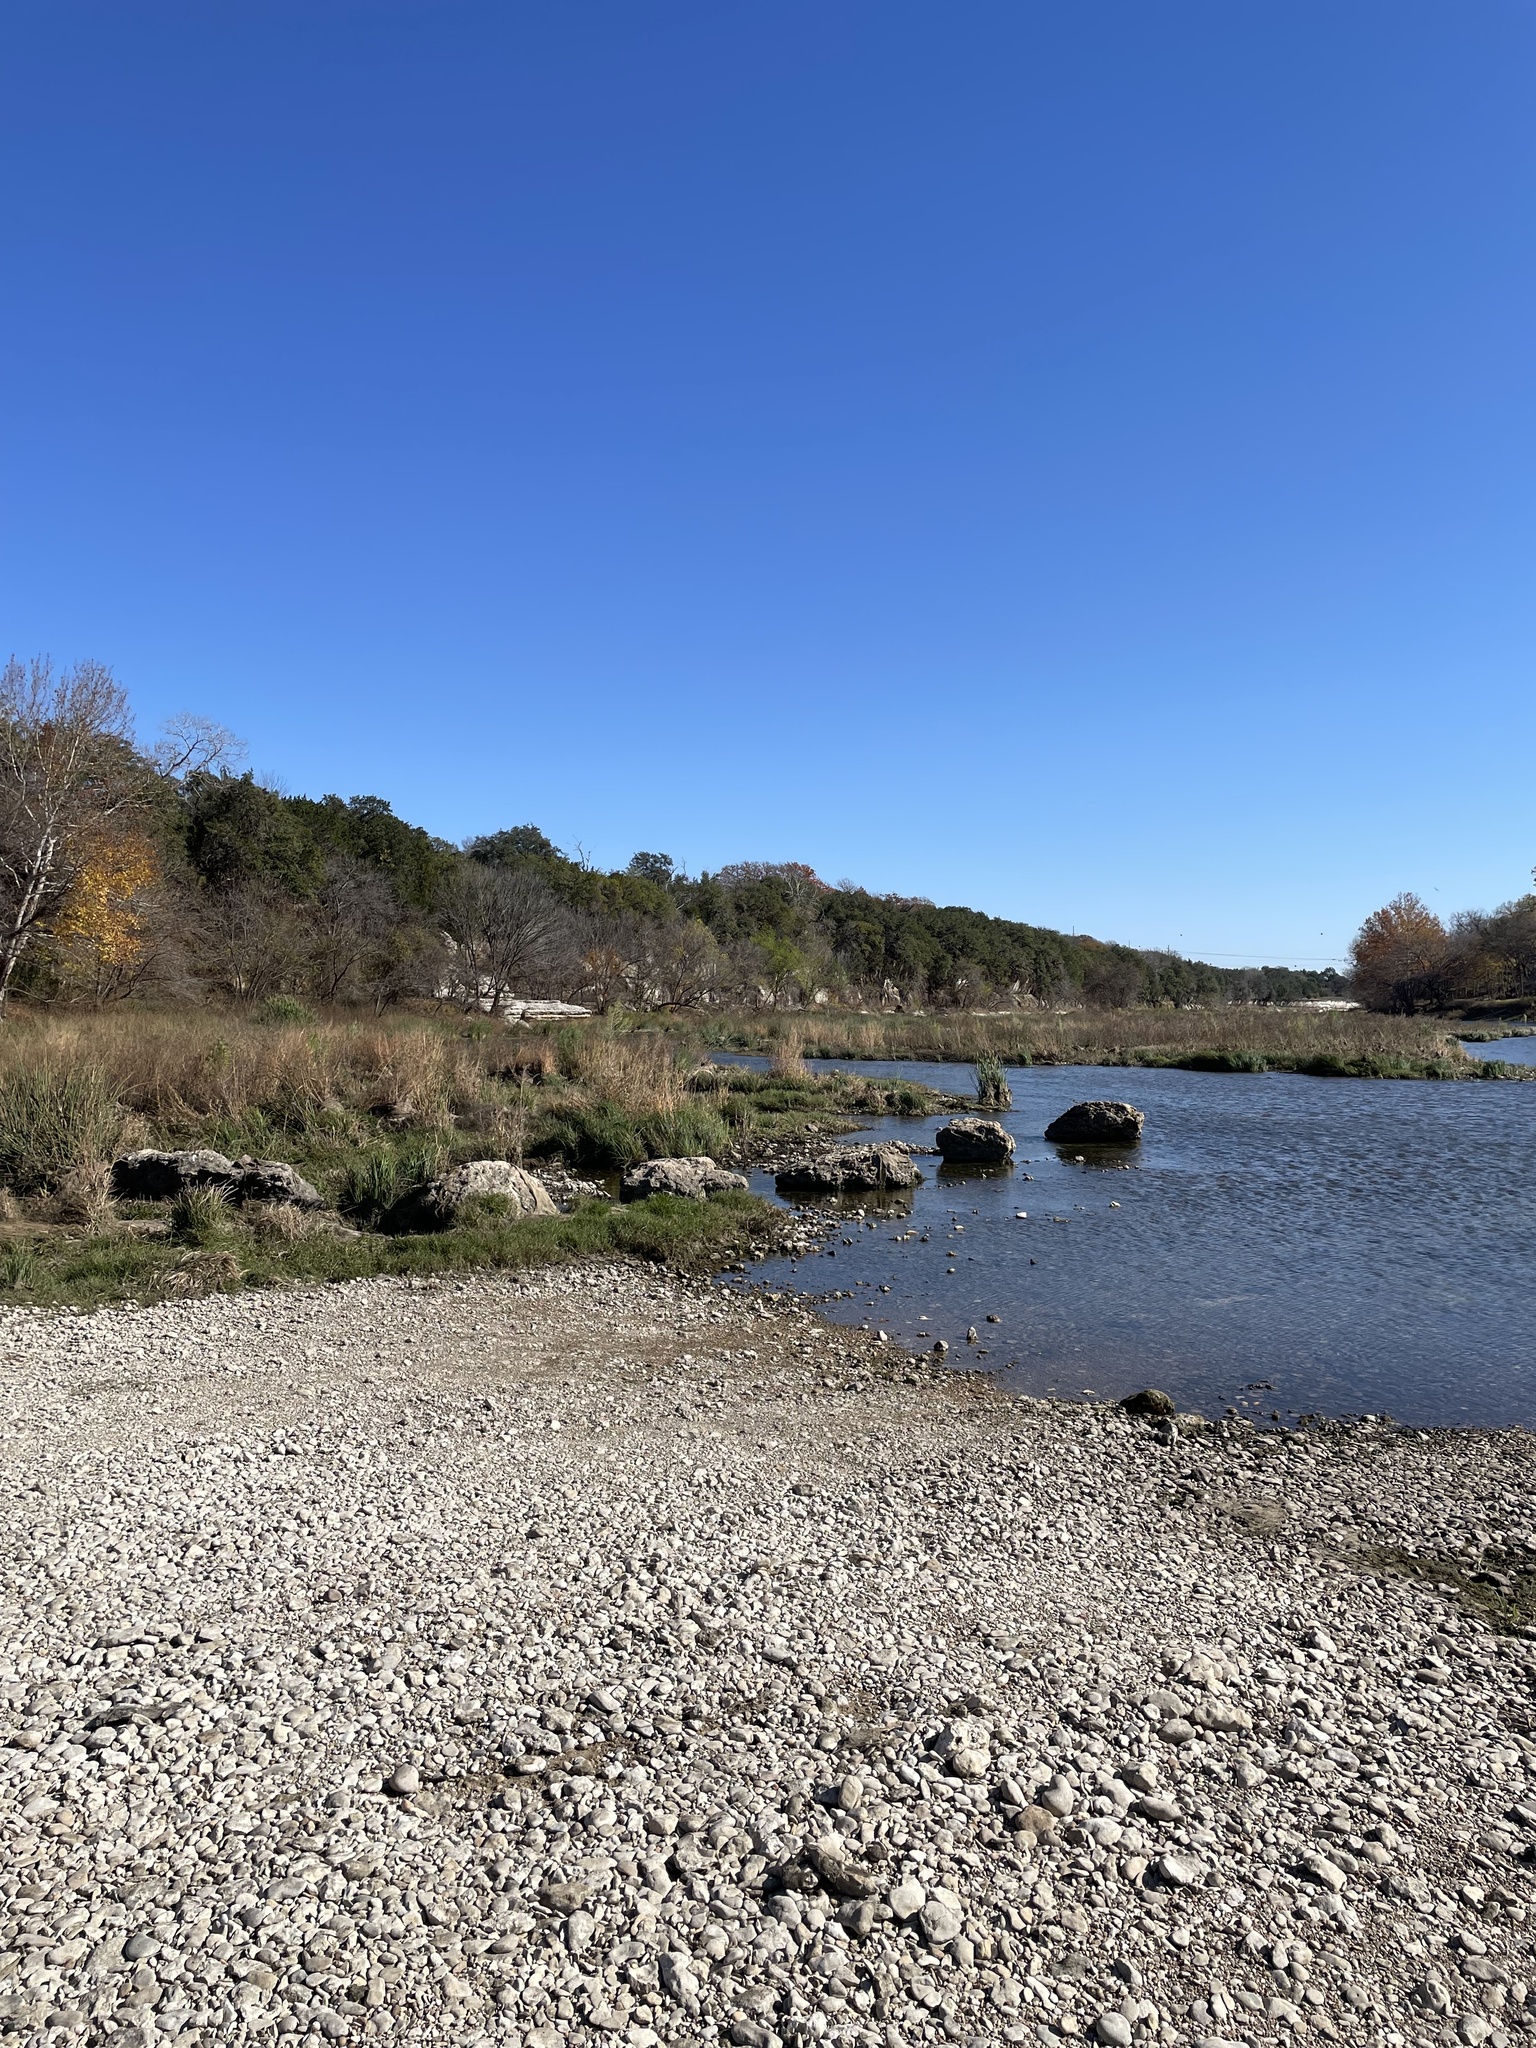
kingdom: Plantae
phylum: Tracheophyta
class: Liliopsida
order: Poales
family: Poaceae
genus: Panicum
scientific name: Panicum virgatum
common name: Switchgrass
